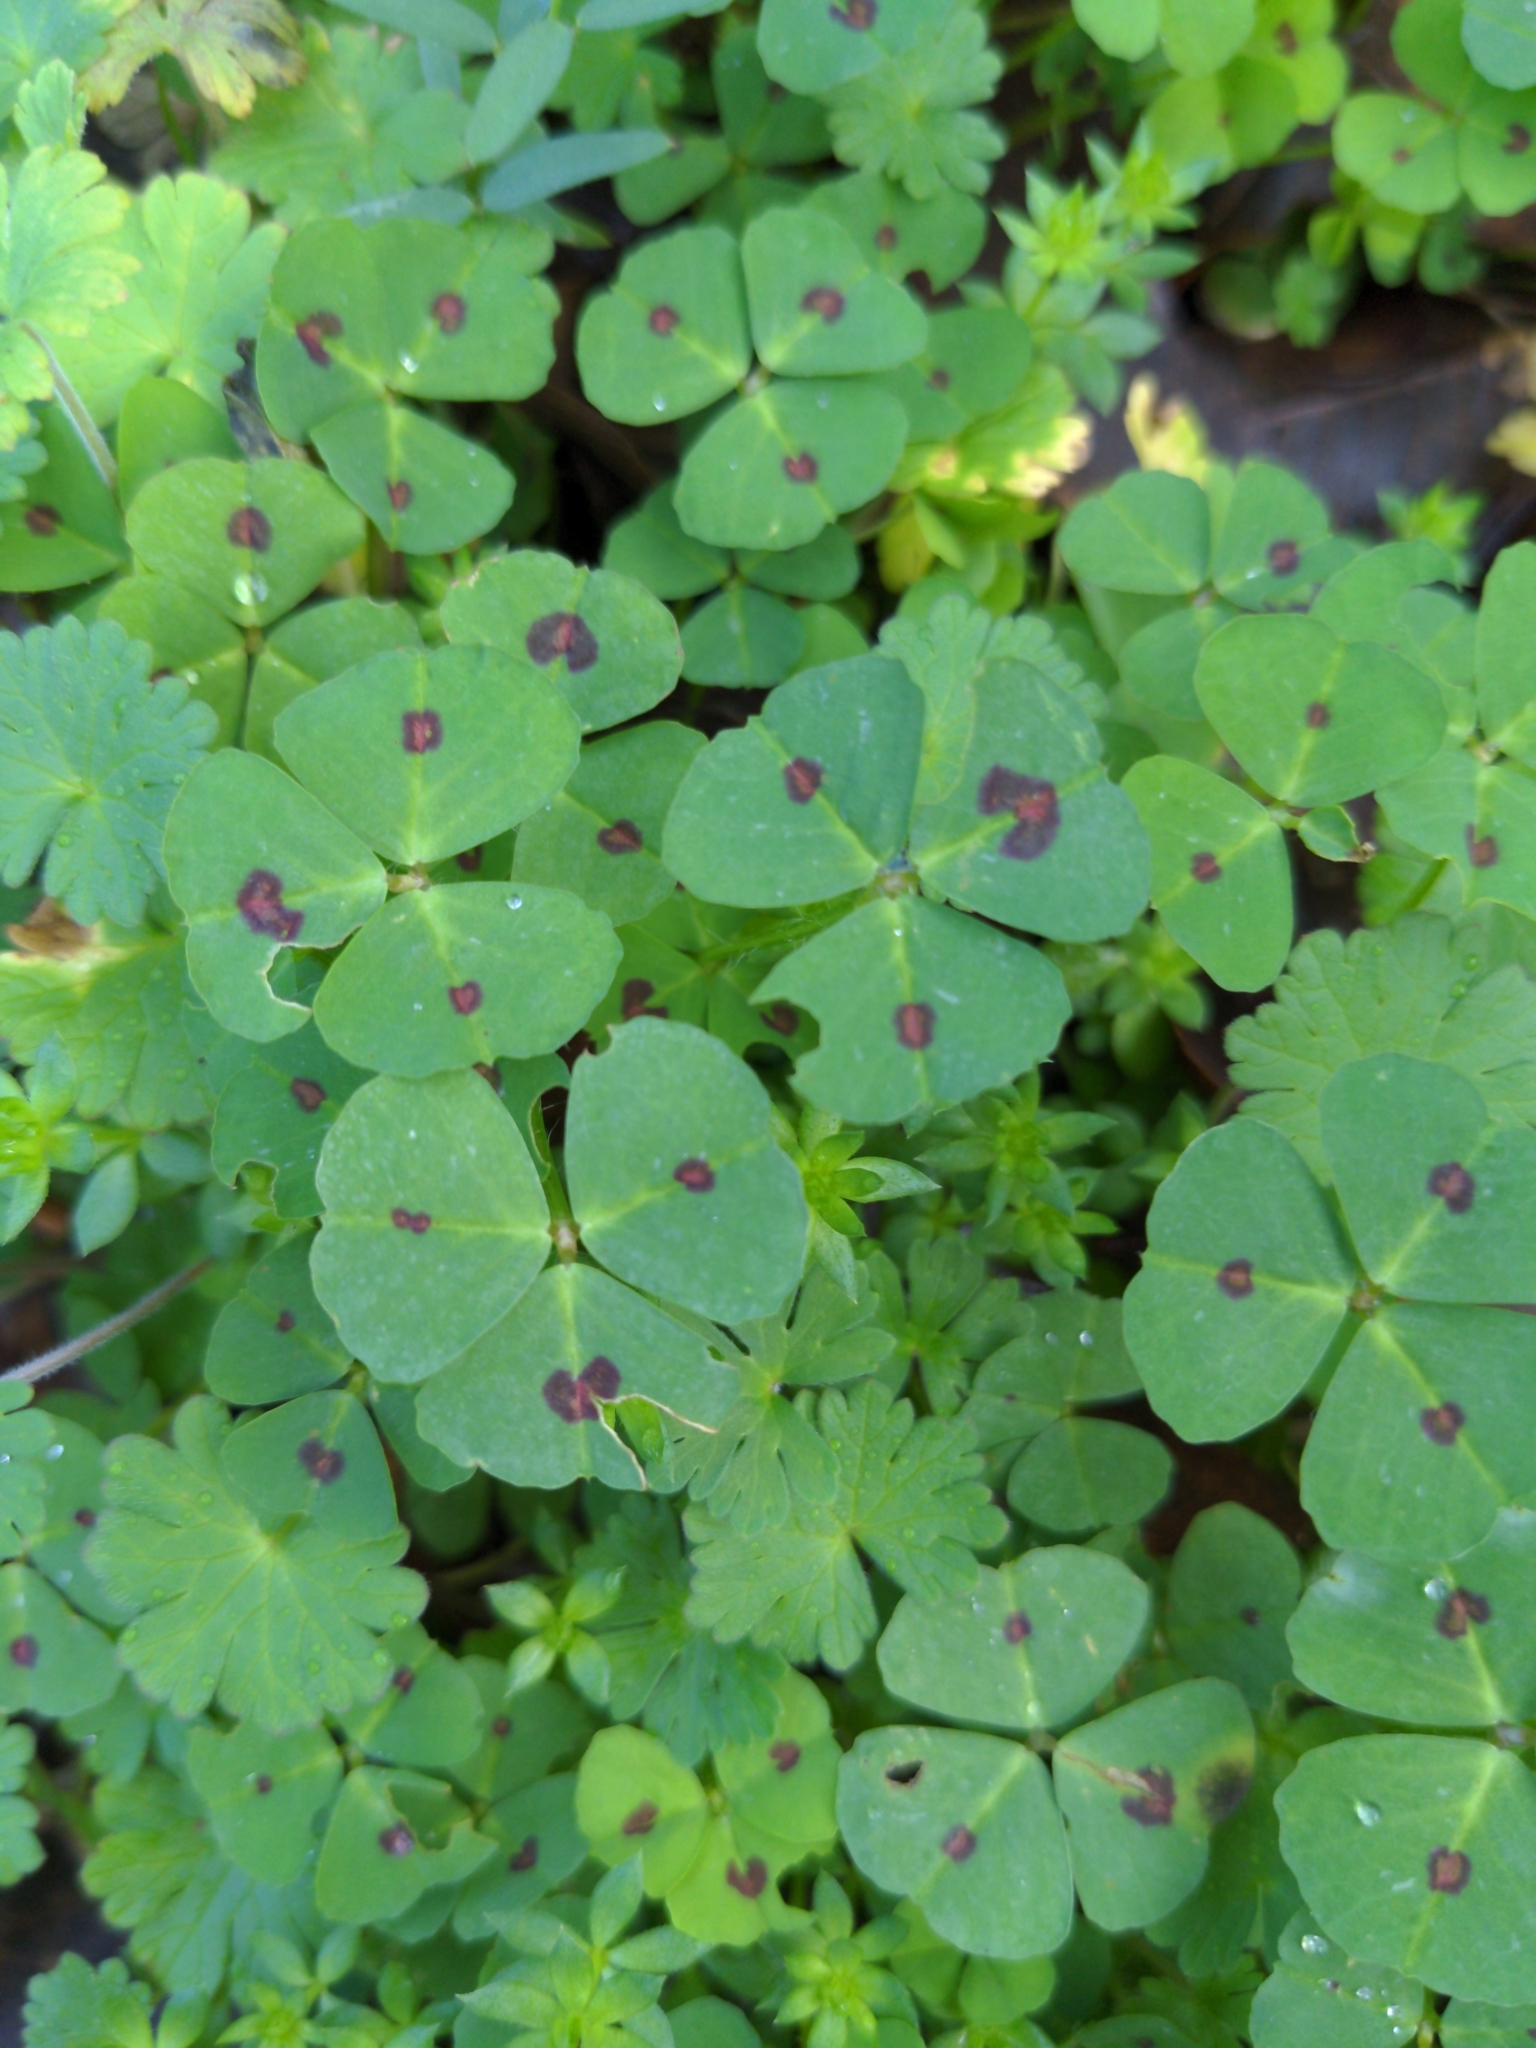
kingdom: Plantae
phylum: Tracheophyta
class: Magnoliopsida
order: Fabales
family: Fabaceae
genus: Medicago
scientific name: Medicago arabica
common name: Spotted medick
